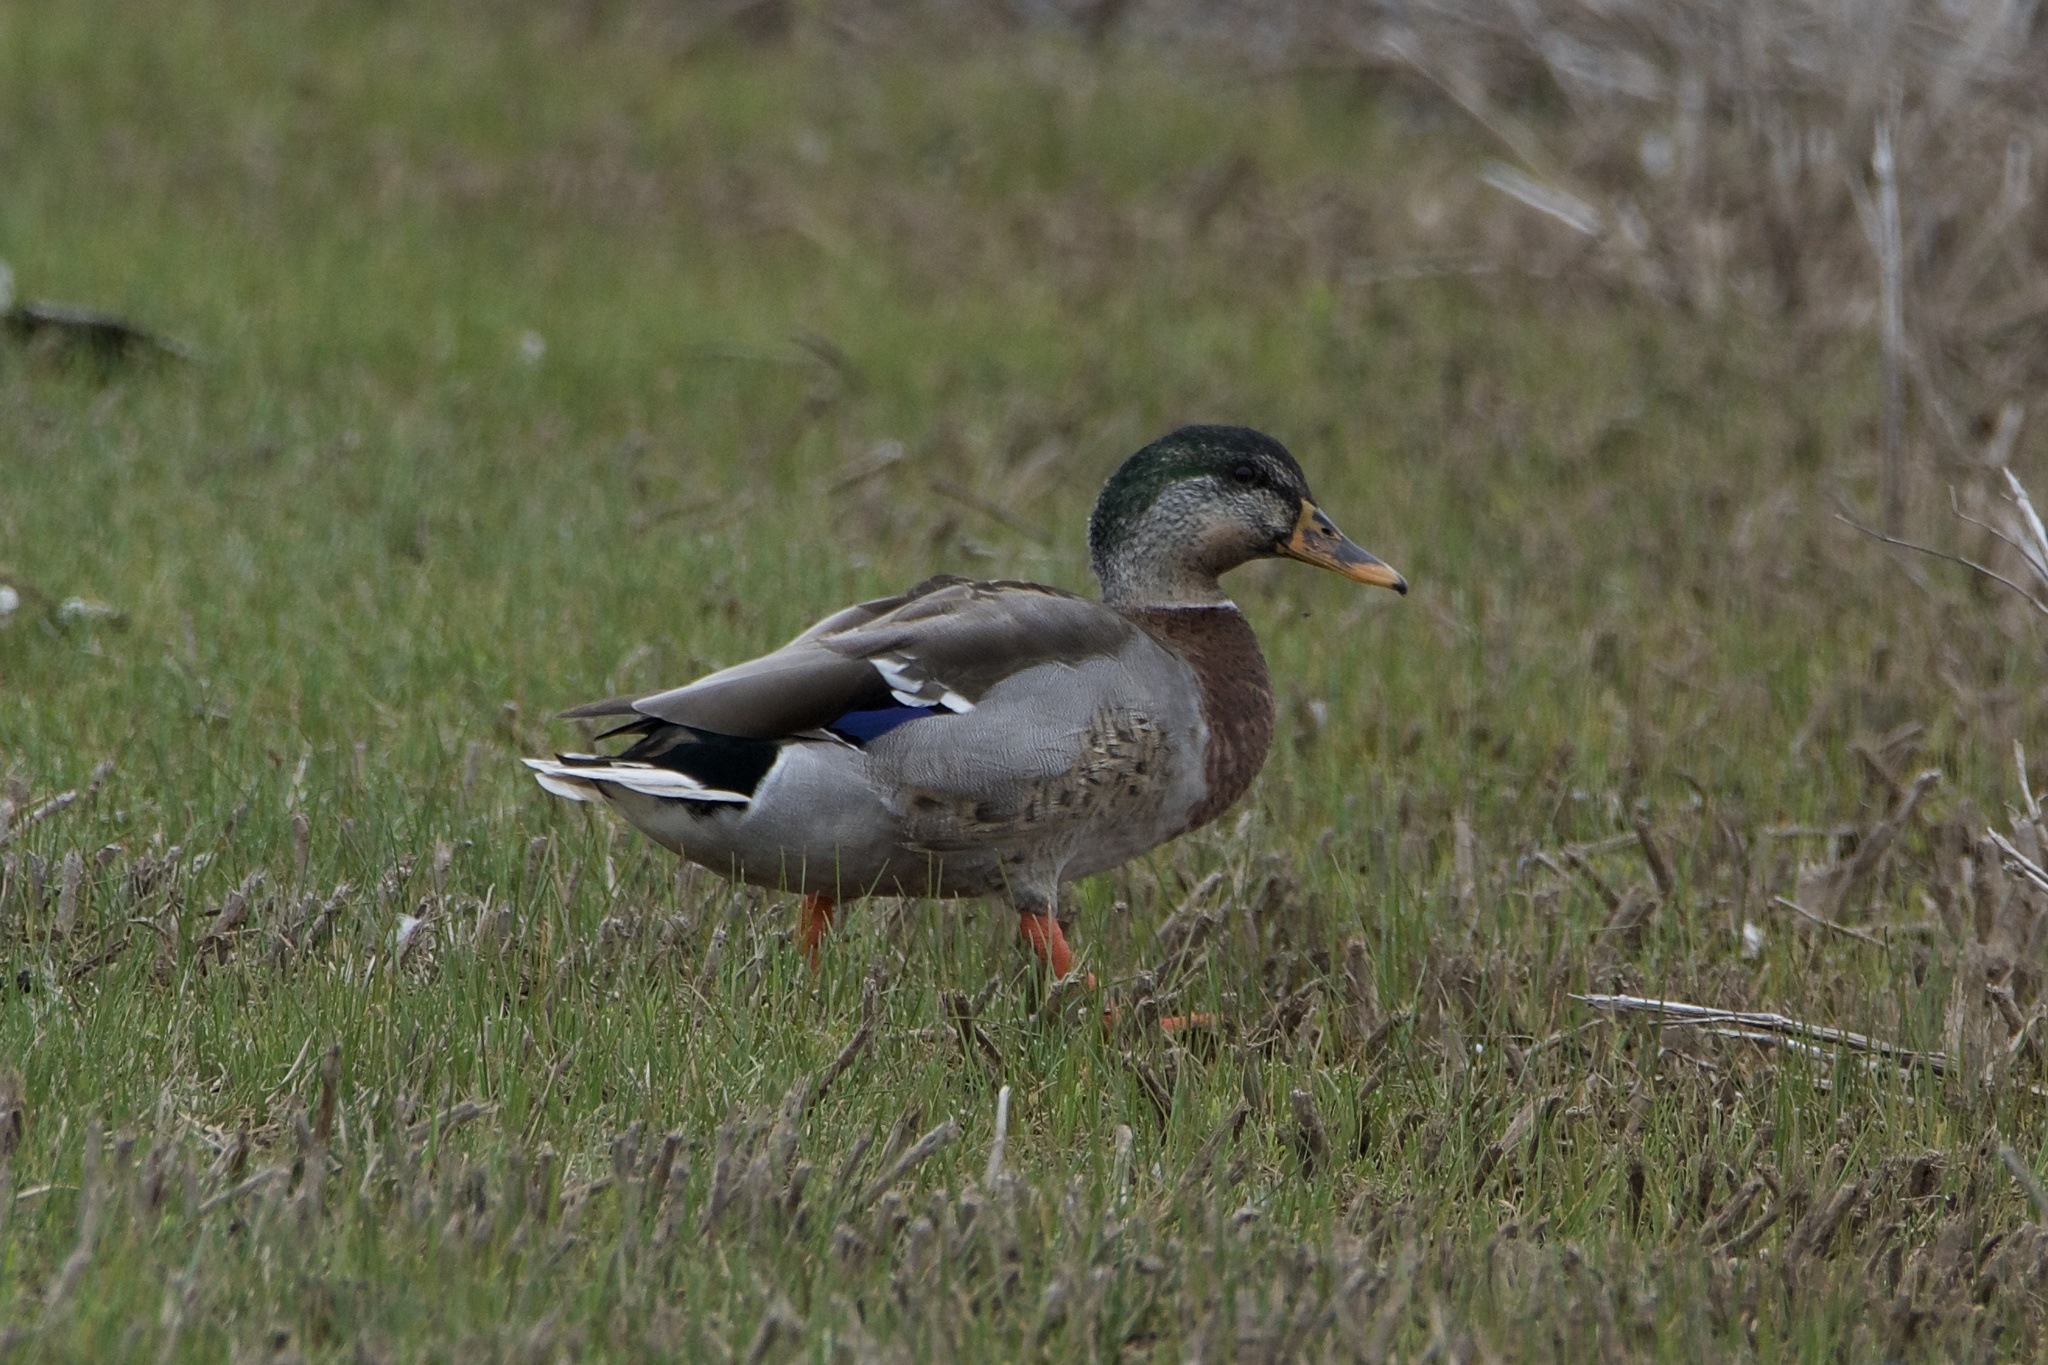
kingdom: Animalia
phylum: Chordata
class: Aves
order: Anseriformes
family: Anatidae
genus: Anas
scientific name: Anas platyrhynchos
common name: Mallard
